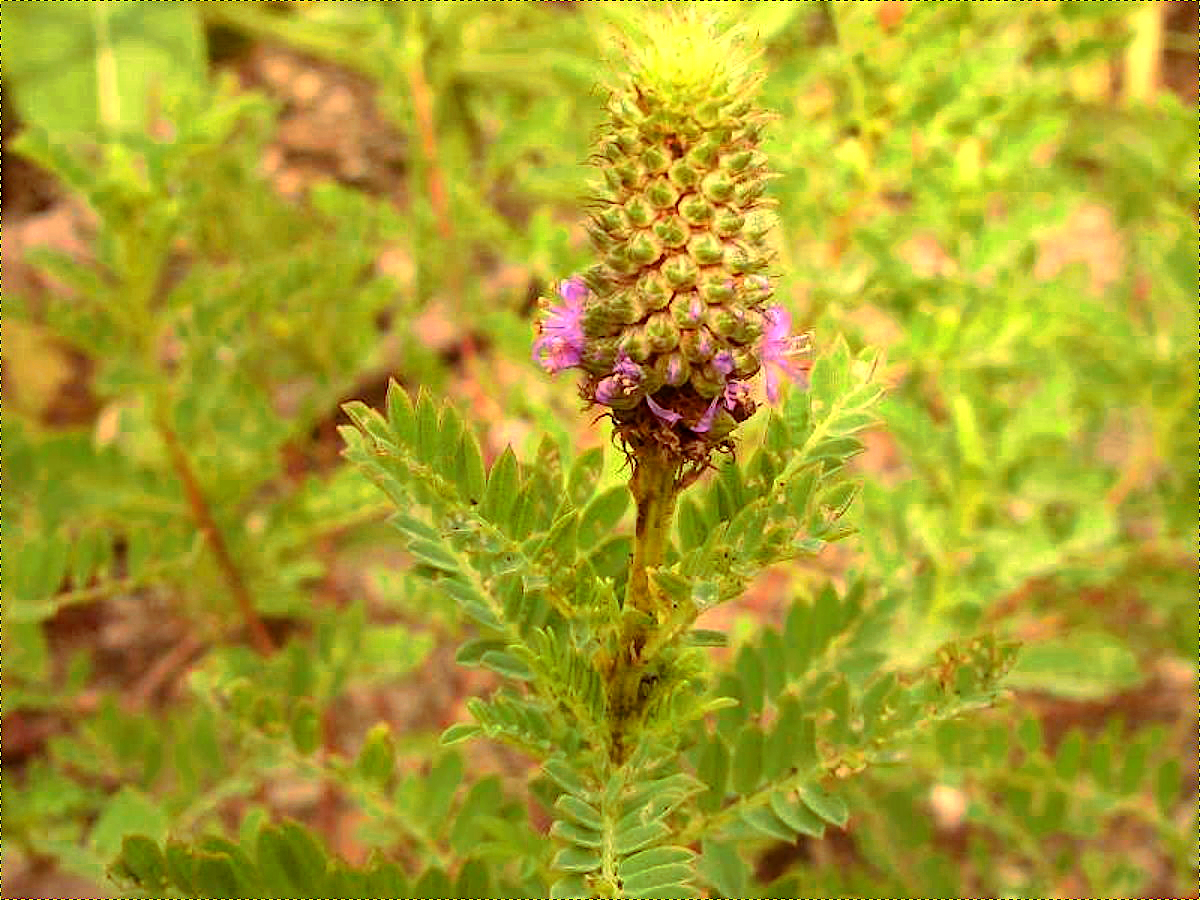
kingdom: Plantae
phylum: Tracheophyta
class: Magnoliopsida
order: Fabales
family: Fabaceae
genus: Dalea
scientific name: Dalea foliosa
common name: Leafy prairie-clover
